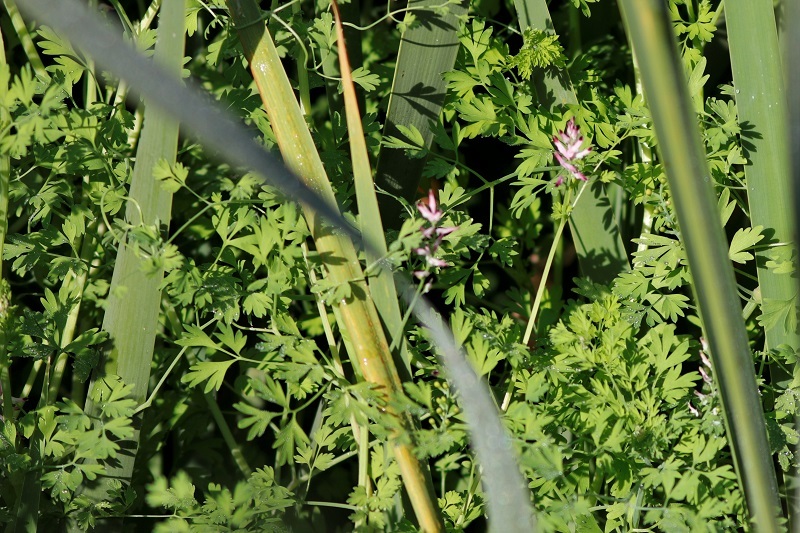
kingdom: Plantae
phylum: Tracheophyta
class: Magnoliopsida
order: Ranunculales
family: Papaveraceae
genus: Fumaria
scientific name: Fumaria muralis
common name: Common ramping-fumitory
